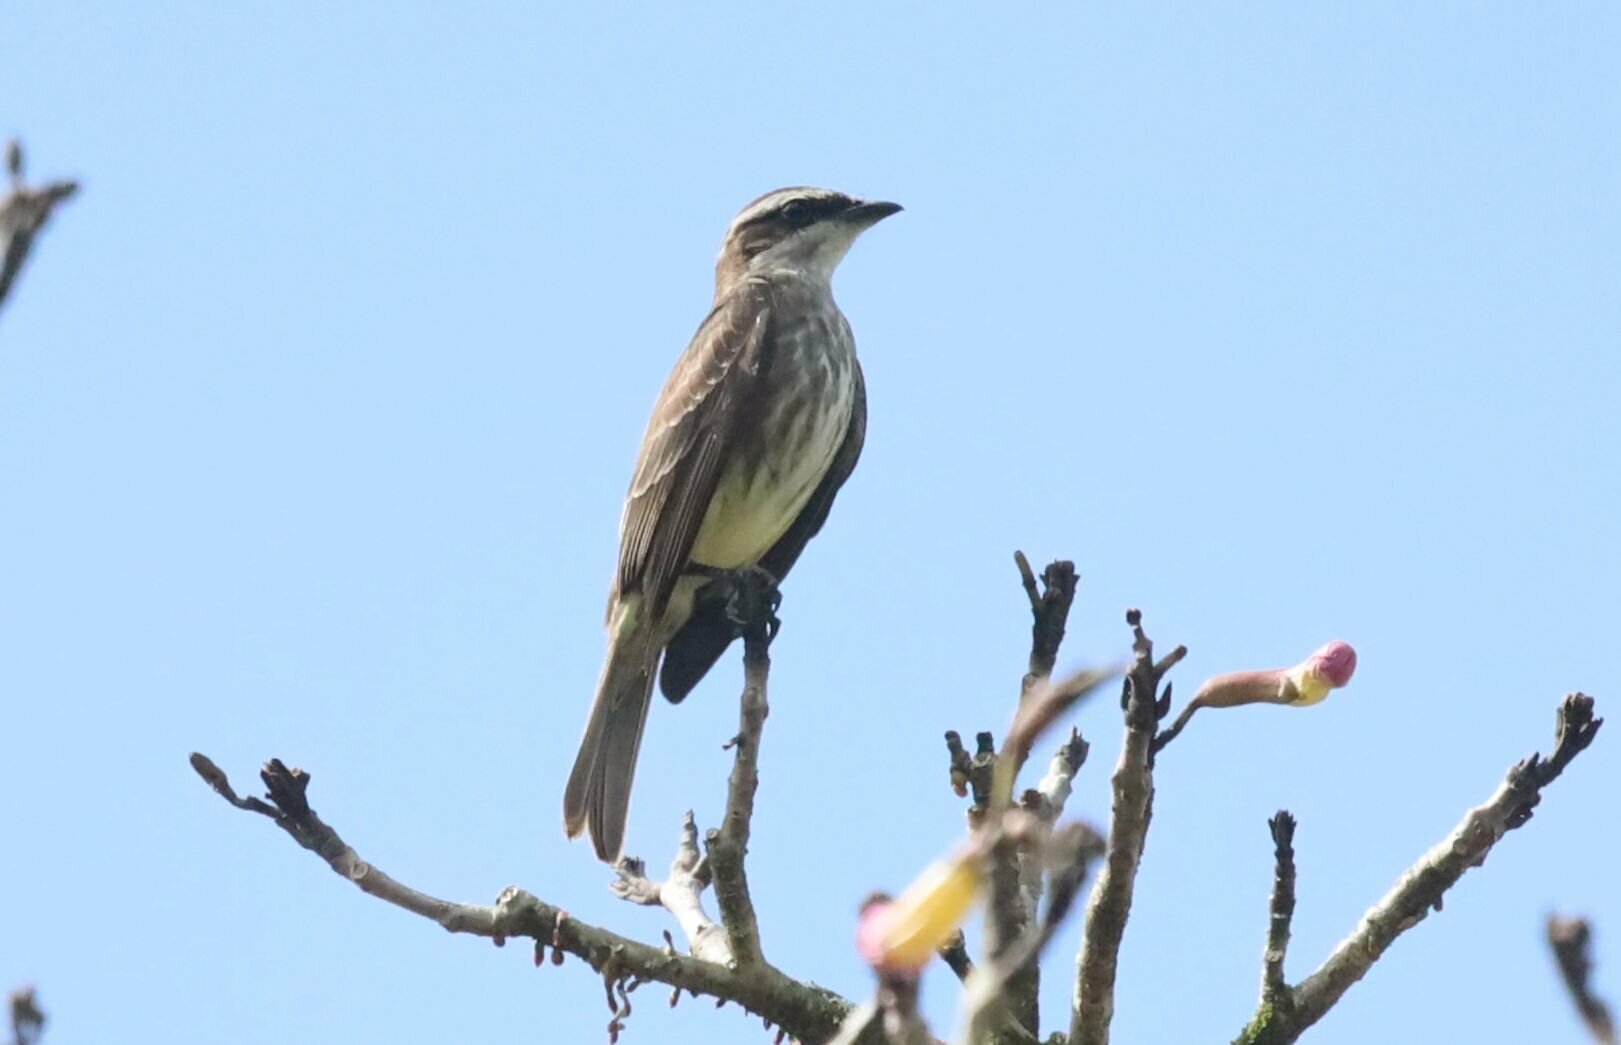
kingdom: Animalia
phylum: Chordata
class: Aves
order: Passeriformes
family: Tyrannidae
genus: Legatus
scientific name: Legatus leucophaius
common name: Piratic flycatcher
